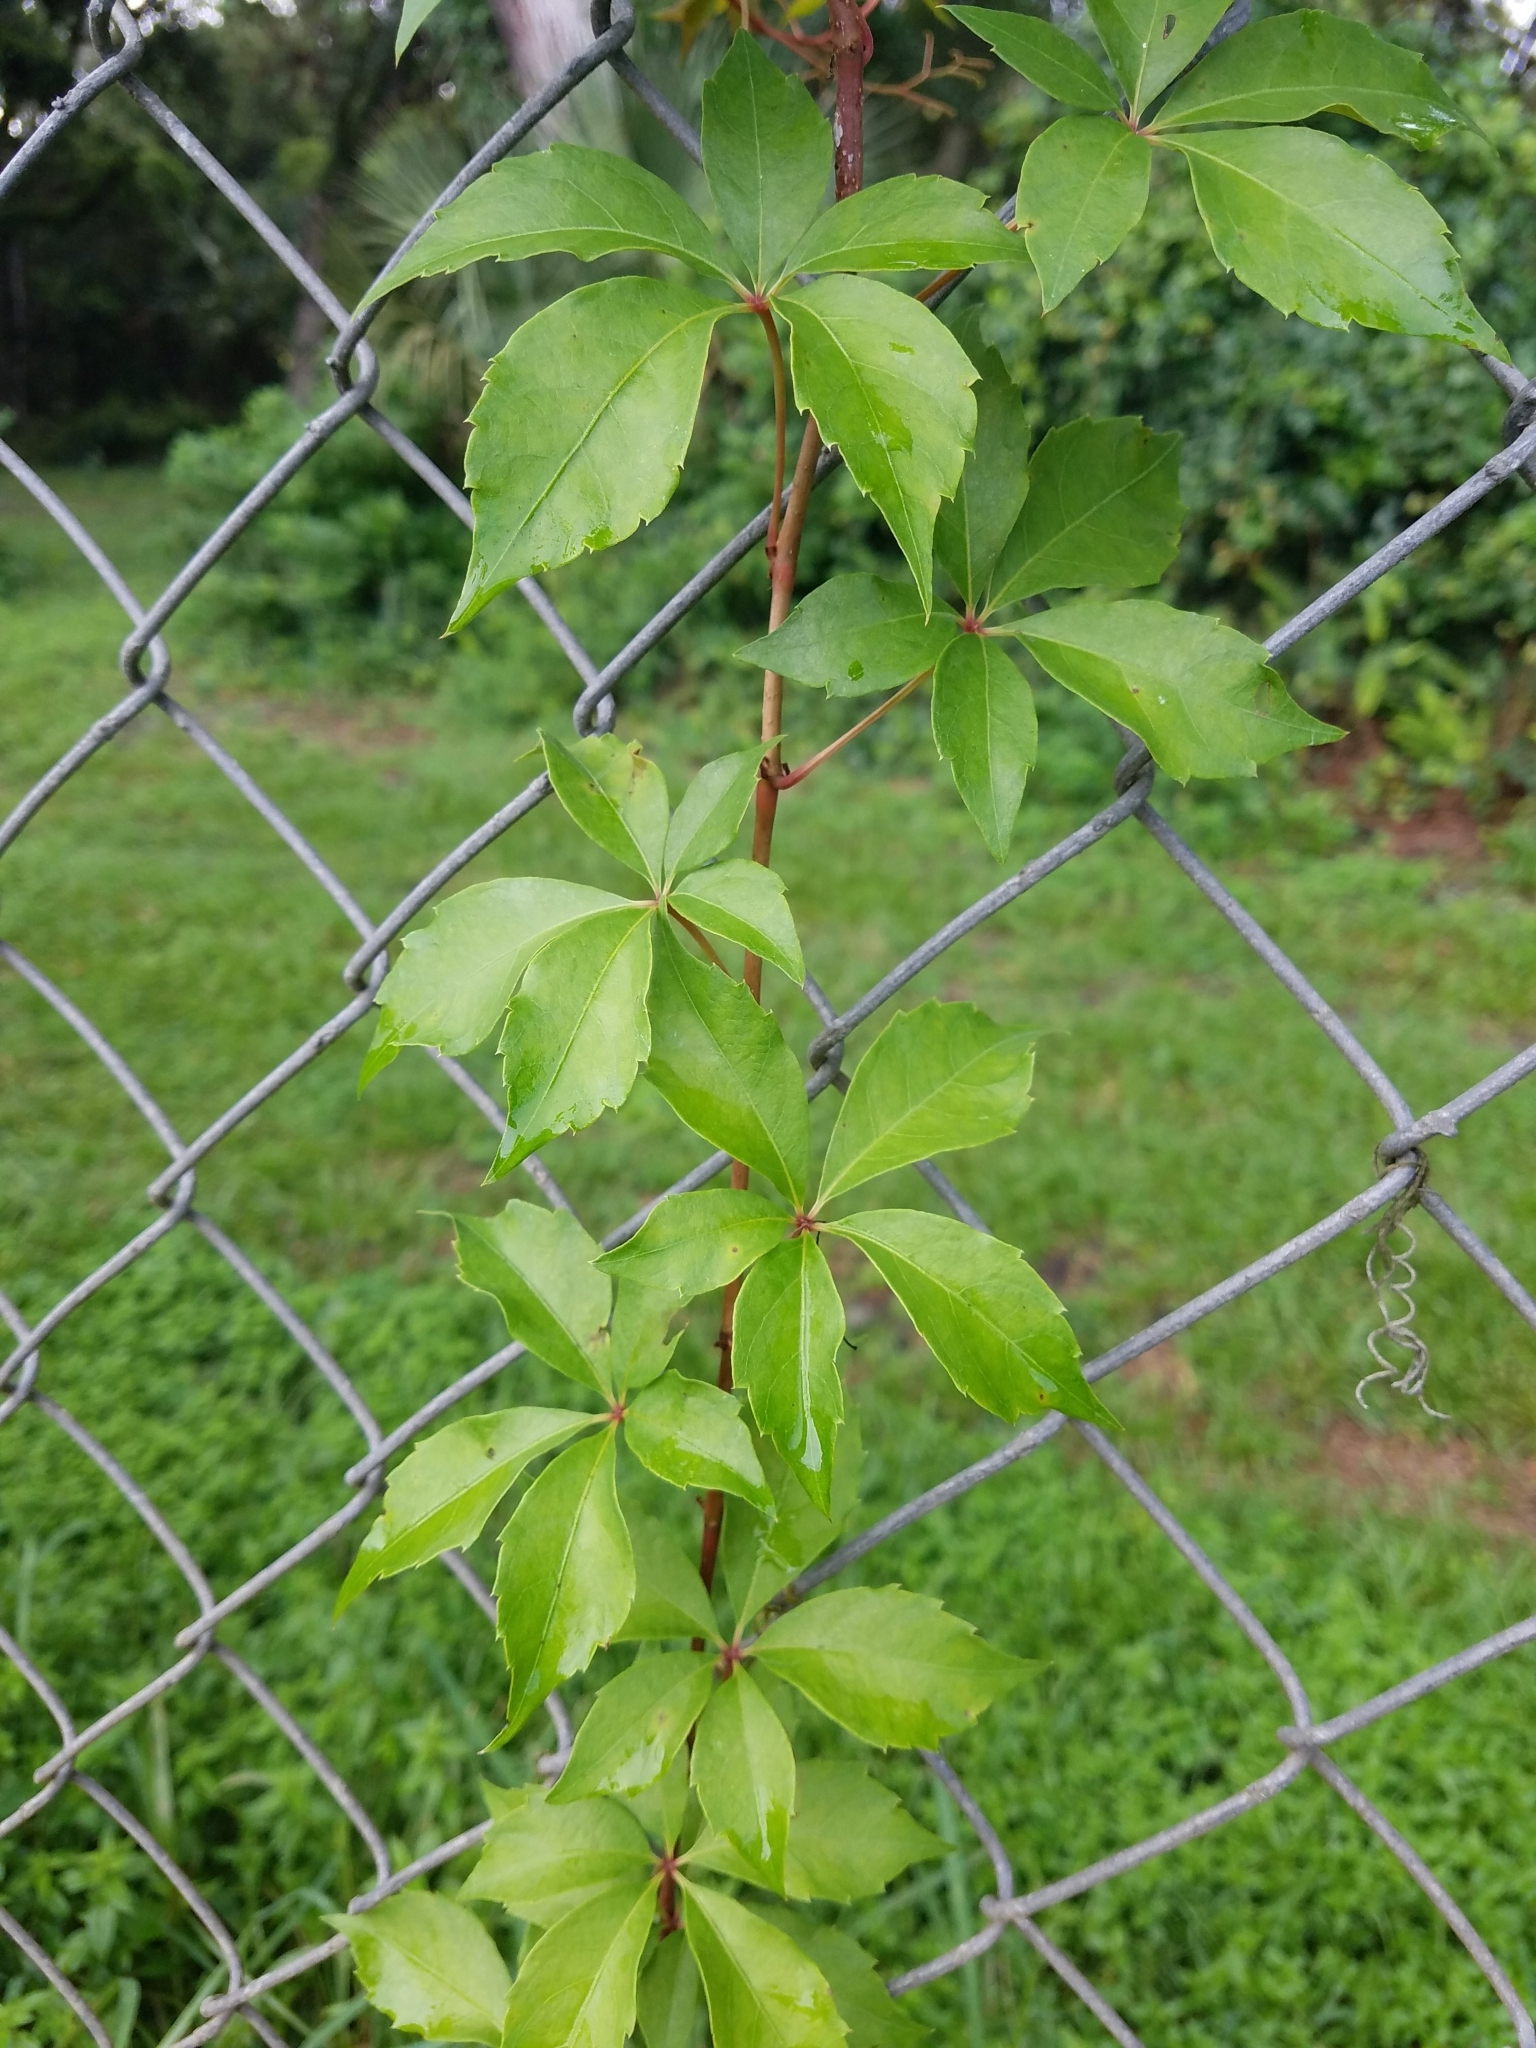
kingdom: Plantae
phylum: Tracheophyta
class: Magnoliopsida
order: Vitales
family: Vitaceae
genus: Parthenocissus
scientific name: Parthenocissus quinquefolia
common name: Virginia-creeper
